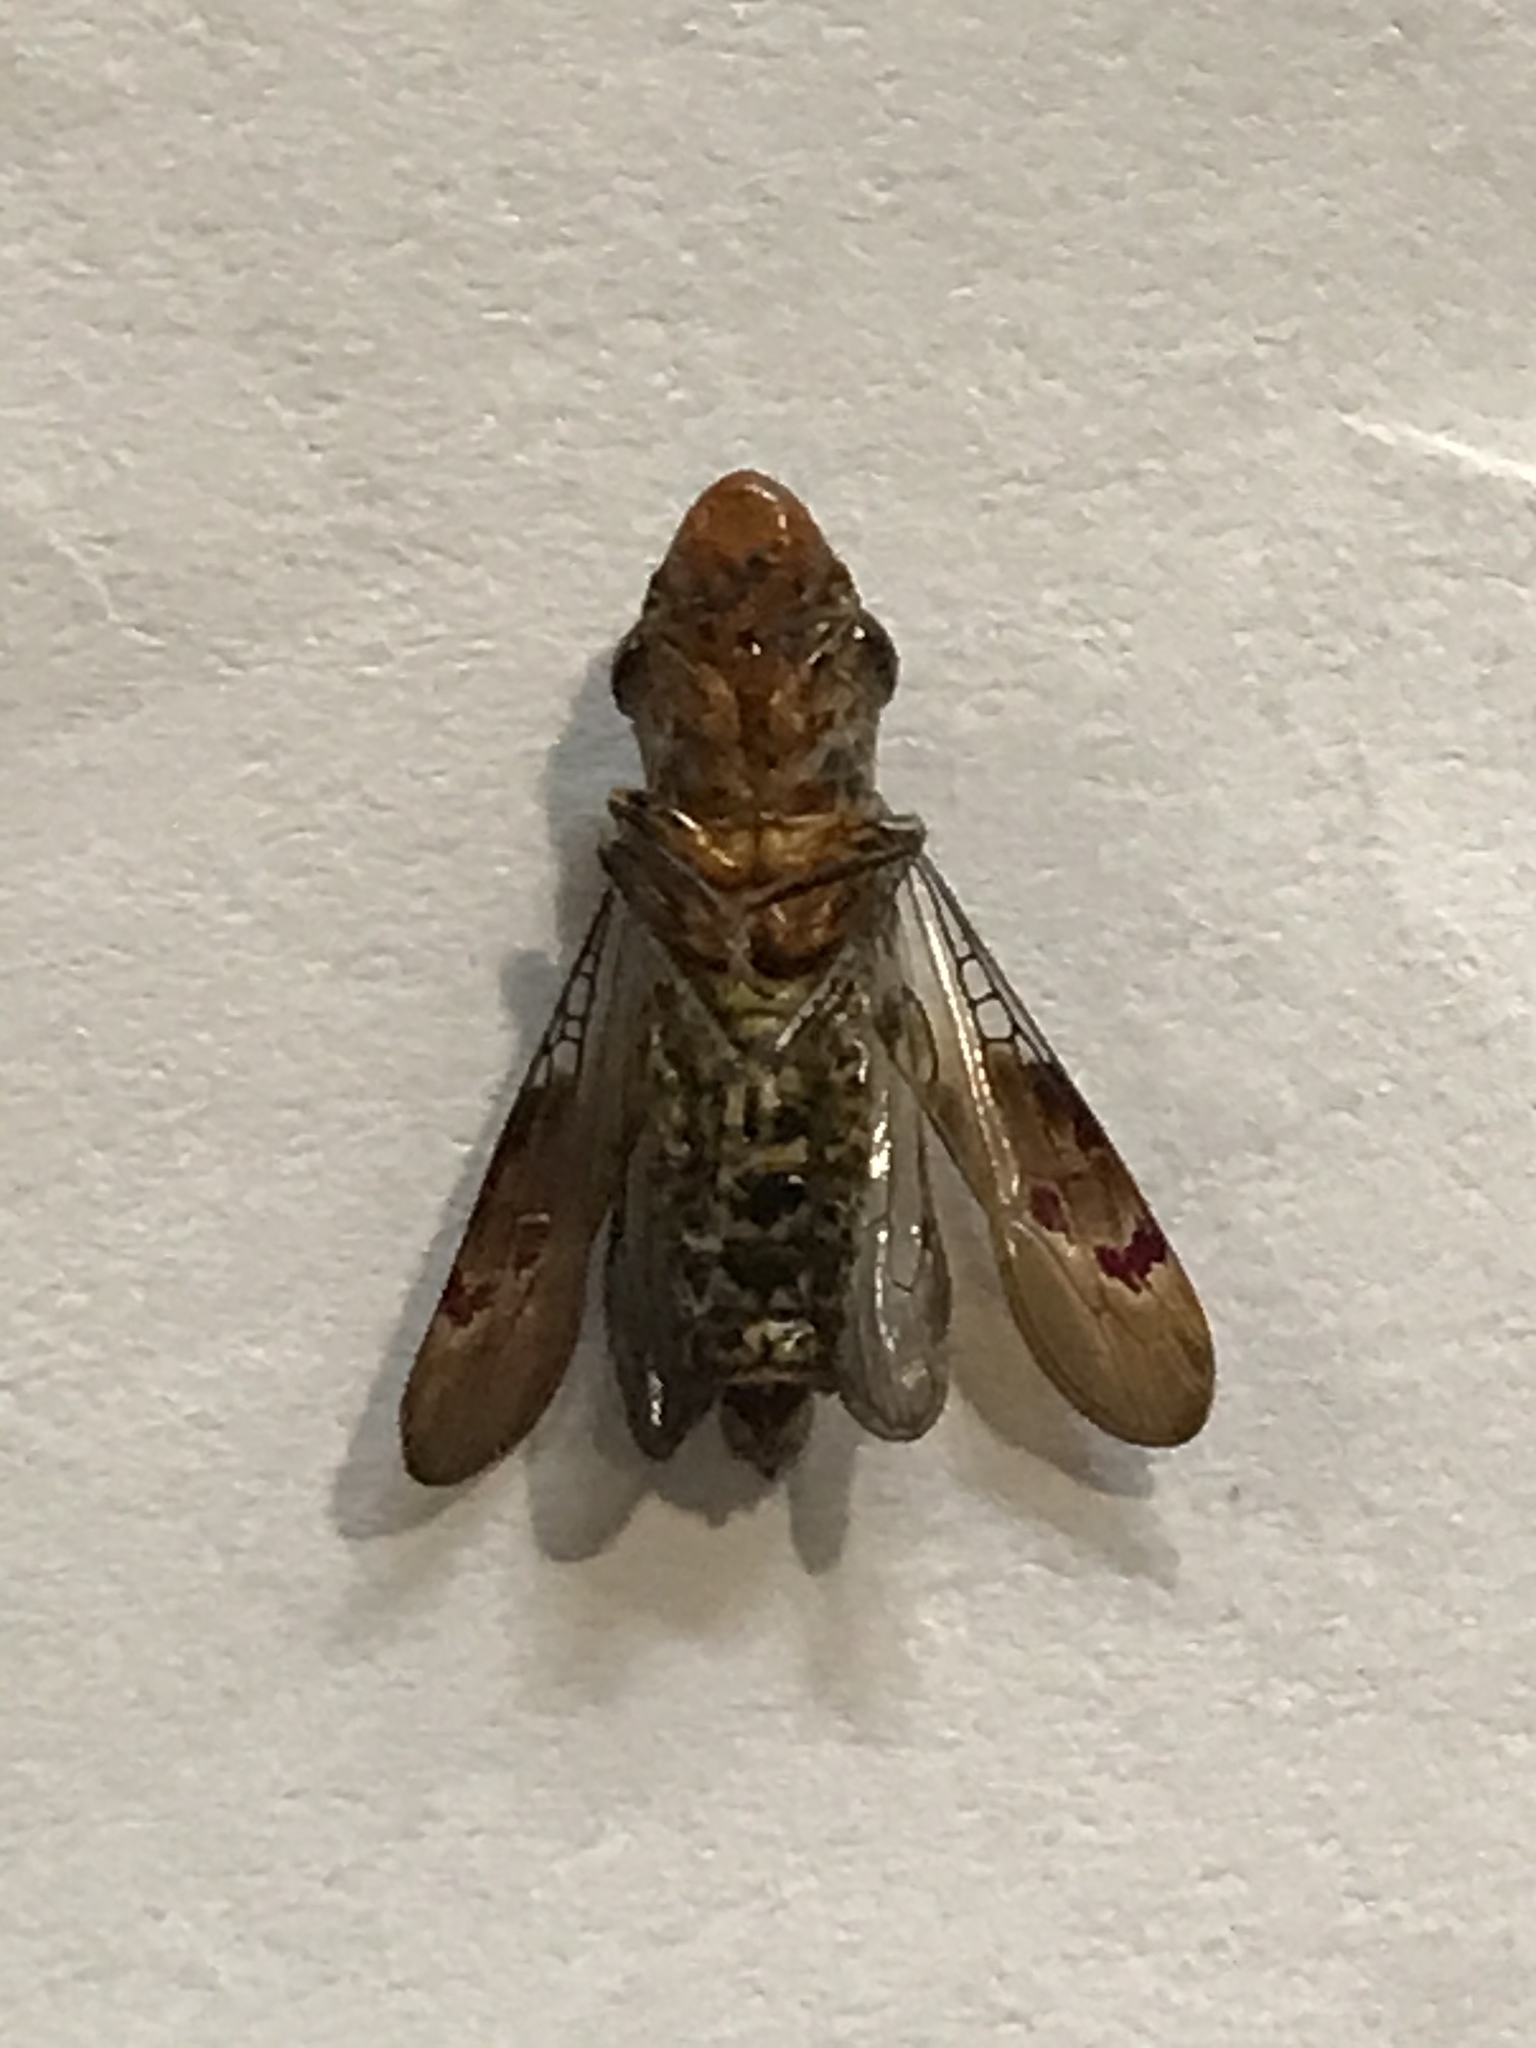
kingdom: Animalia
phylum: Arthropoda
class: Insecta
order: Hemiptera
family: Cicadellidae
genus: Homalodisca
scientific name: Homalodisca vitripennis
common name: Glassy-winged sharpshooter
